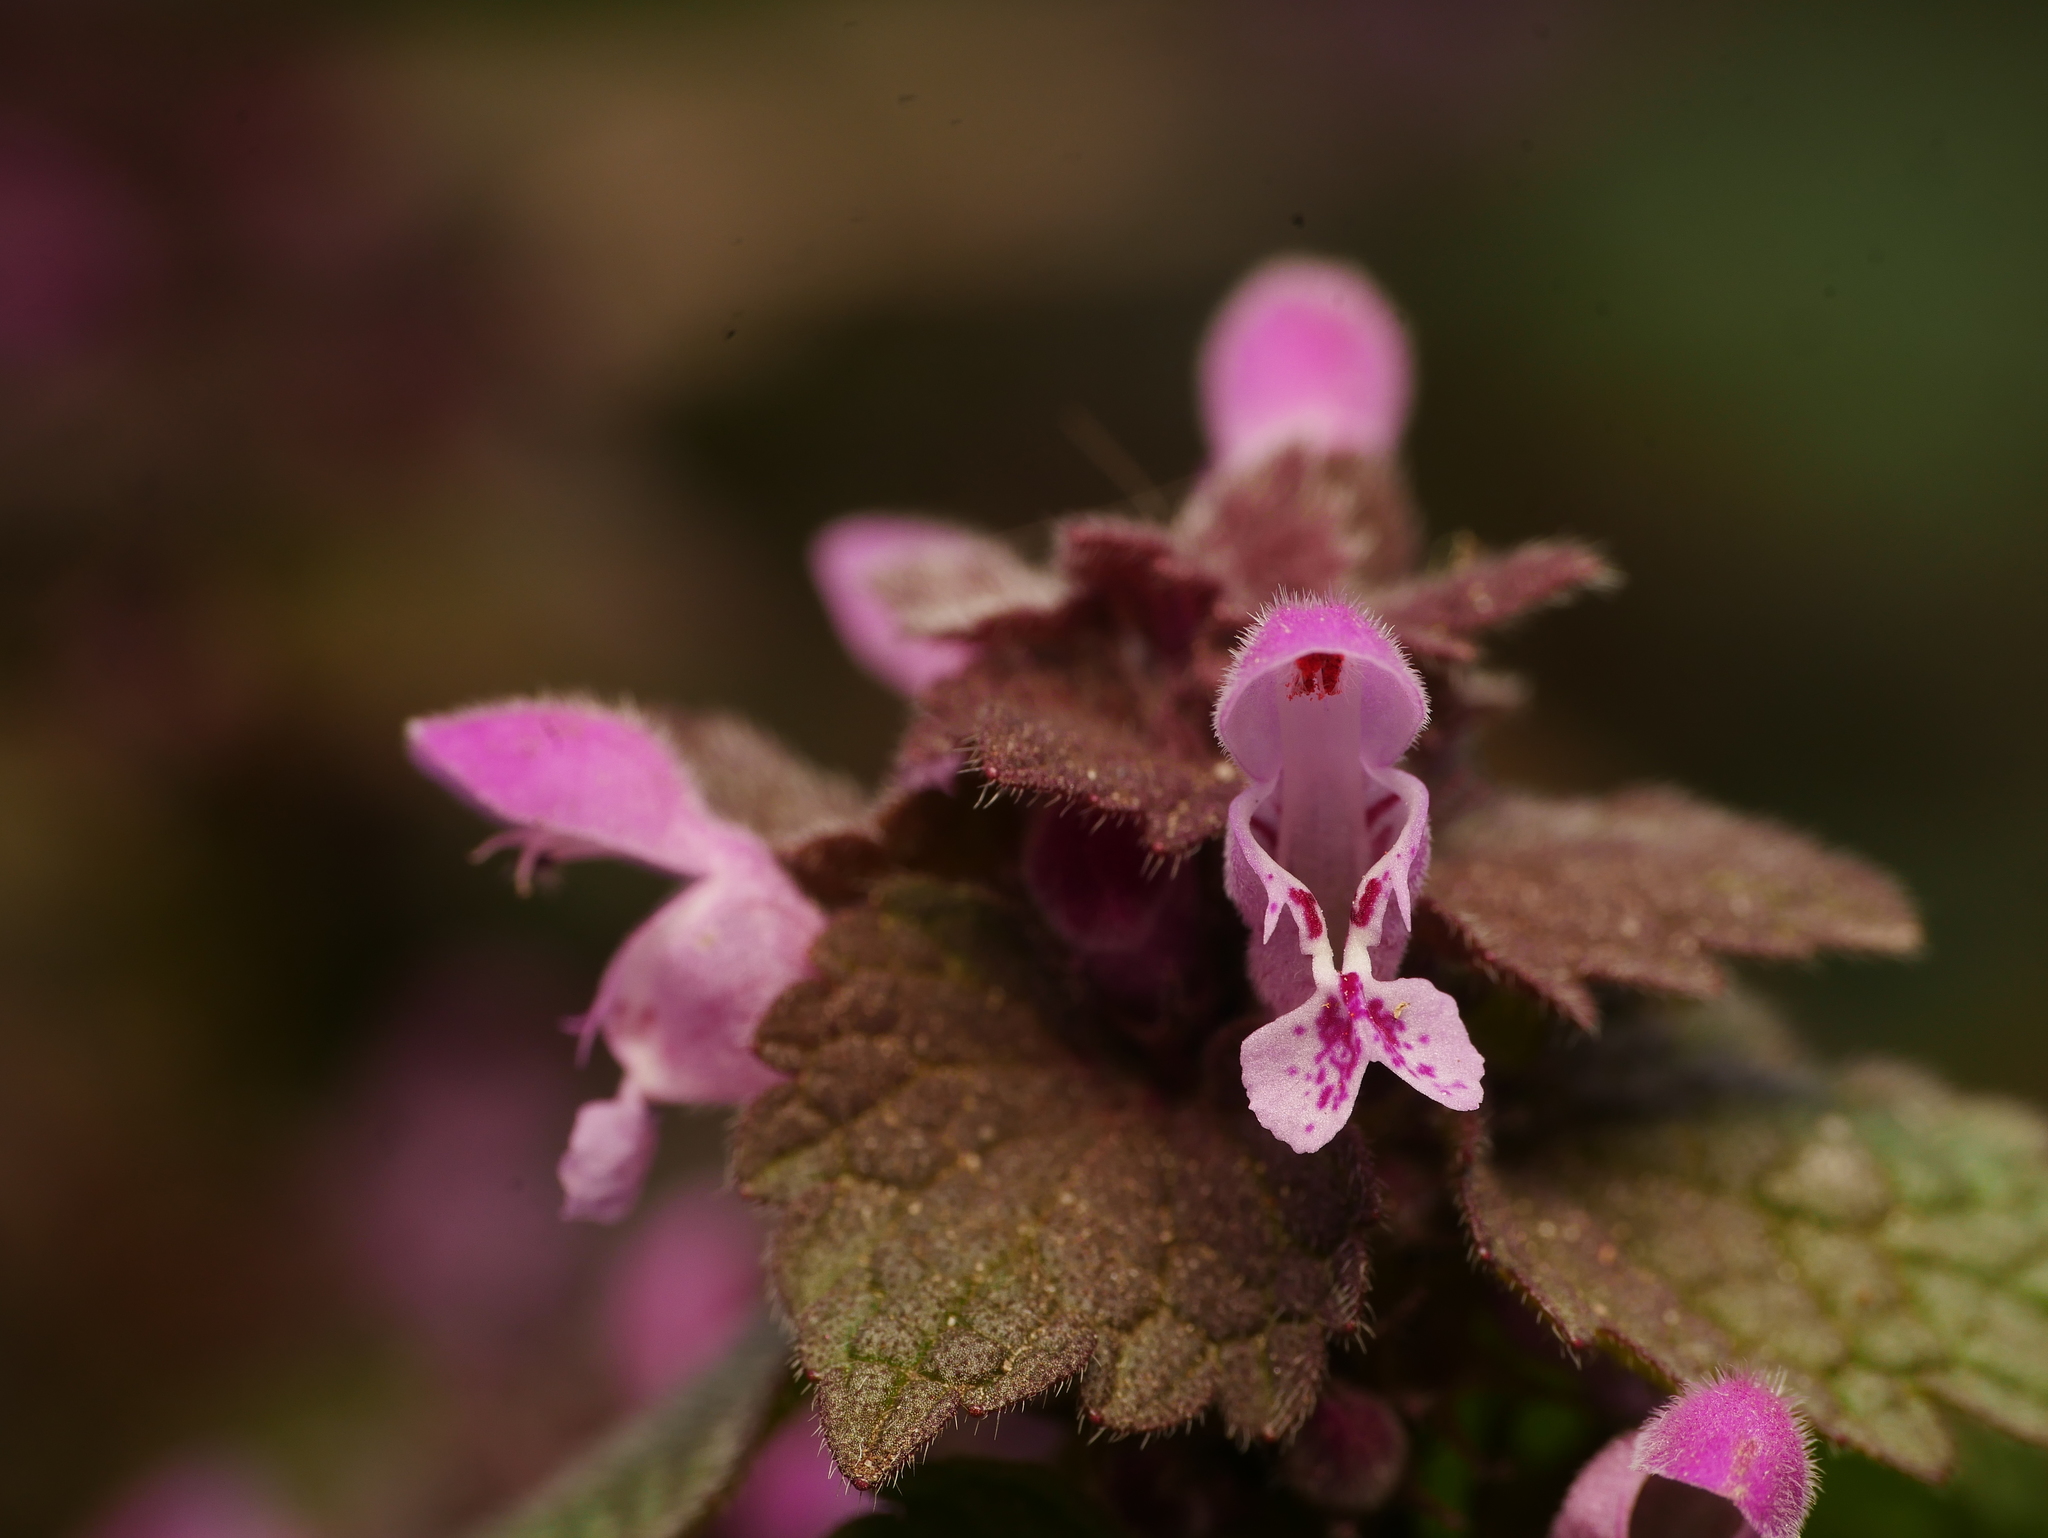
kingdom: Plantae
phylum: Tracheophyta
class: Magnoliopsida
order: Lamiales
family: Lamiaceae
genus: Lamium
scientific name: Lamium purpureum
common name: Red dead-nettle
